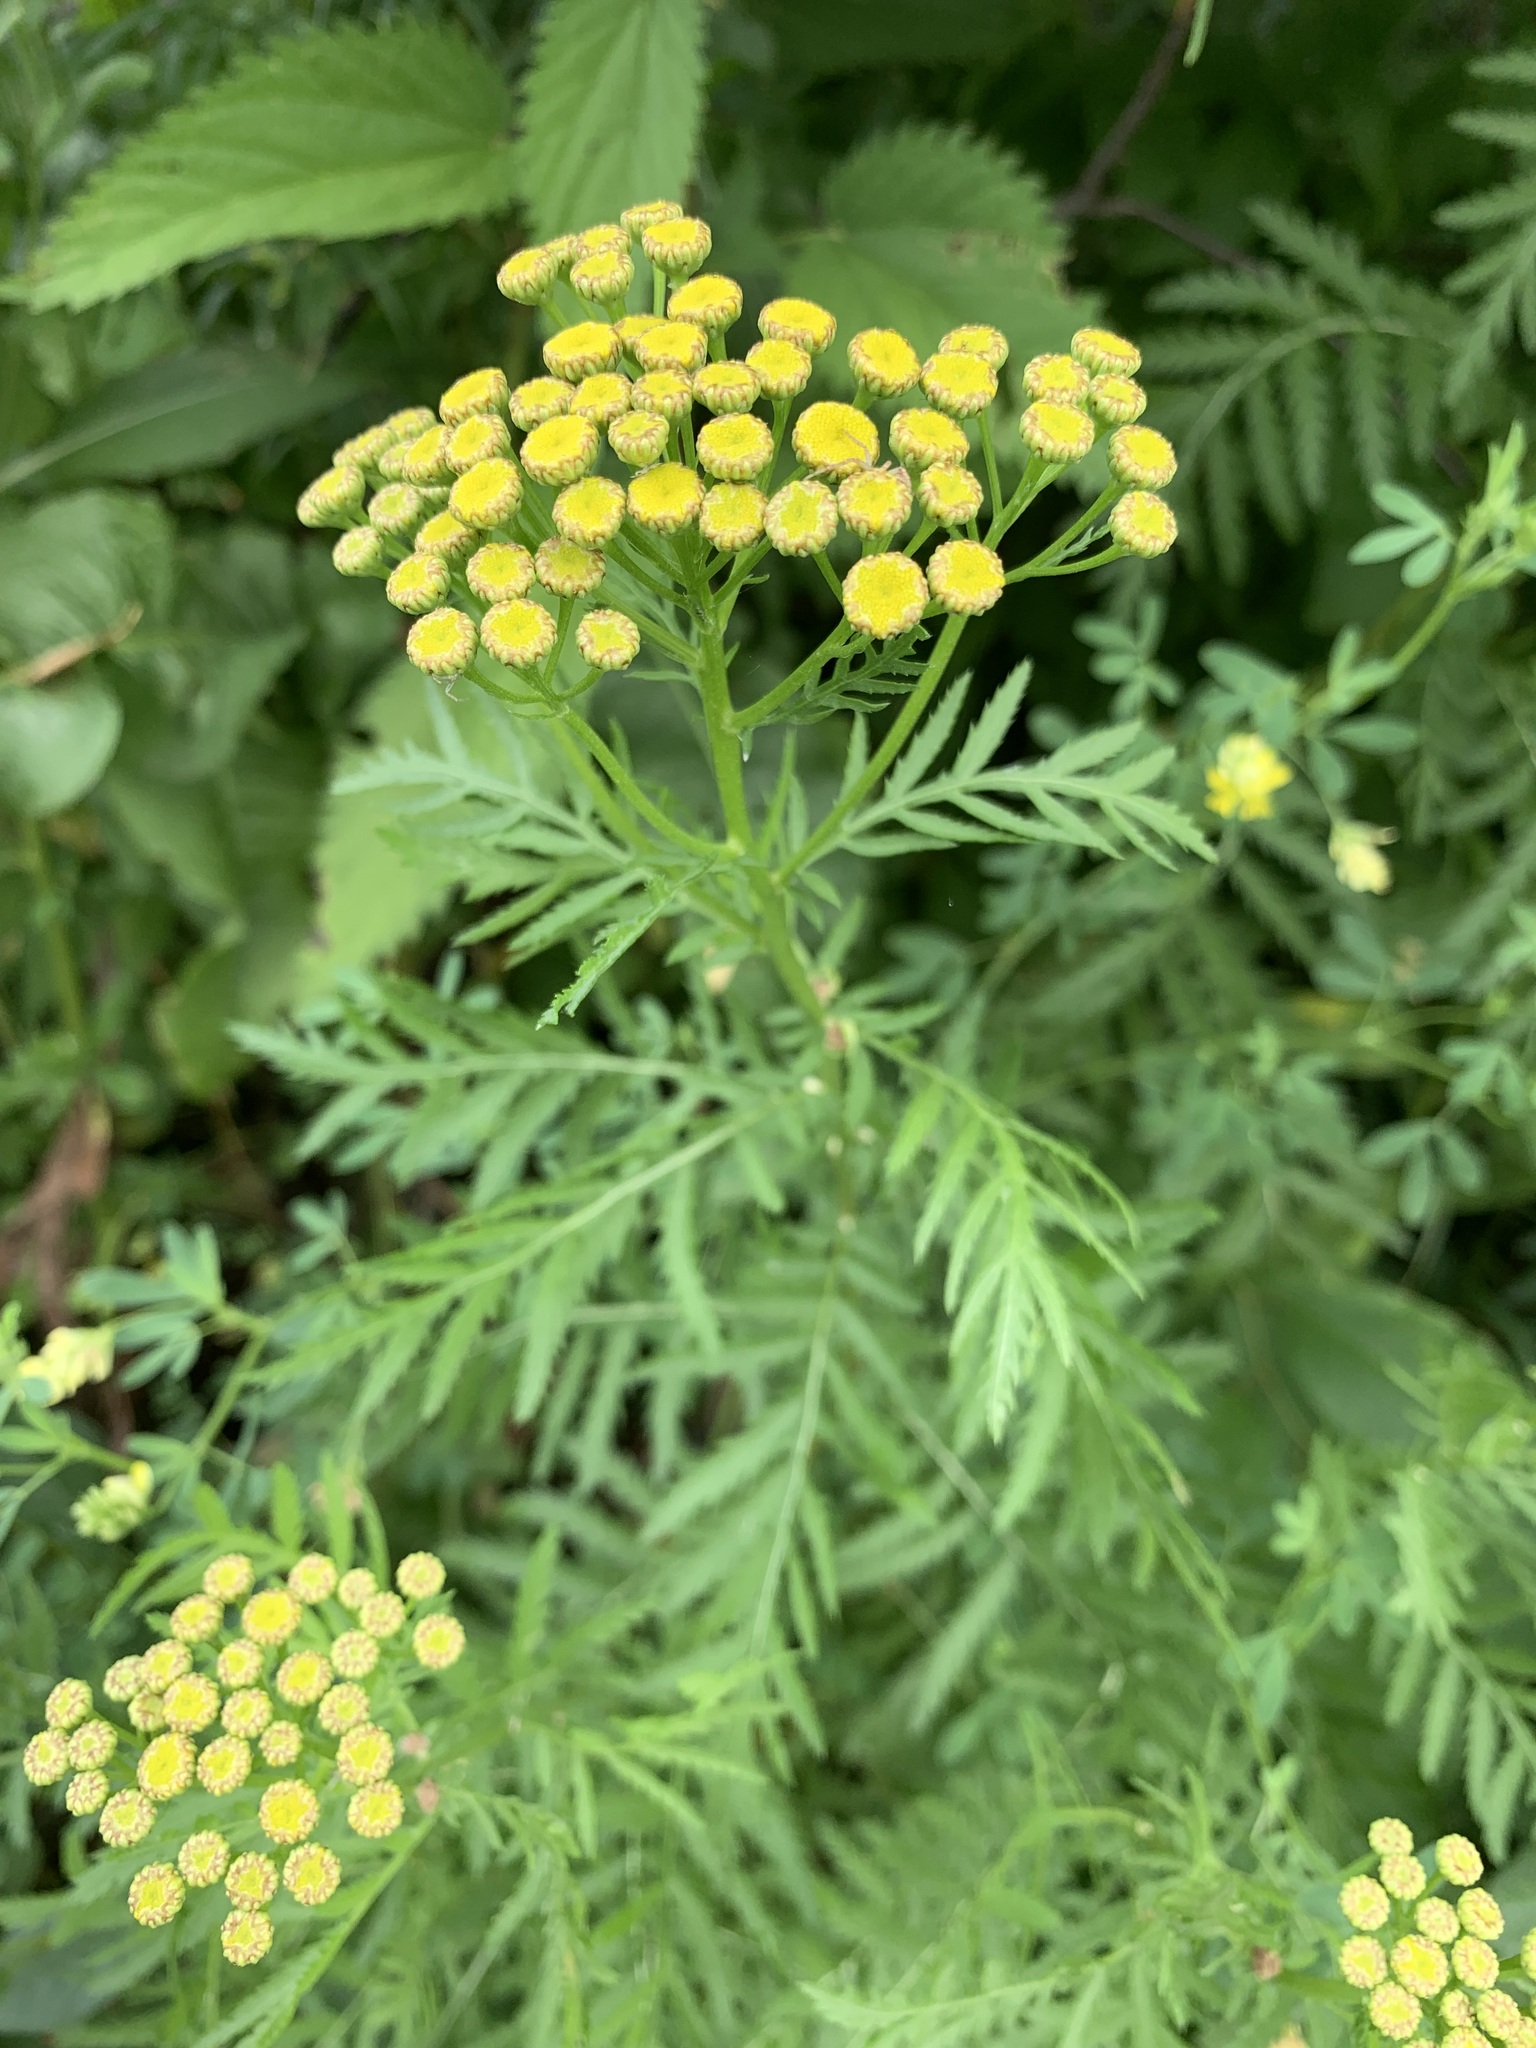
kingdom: Plantae
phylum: Tracheophyta
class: Magnoliopsida
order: Asterales
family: Asteraceae
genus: Tanacetum
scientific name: Tanacetum vulgare
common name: Common tansy
